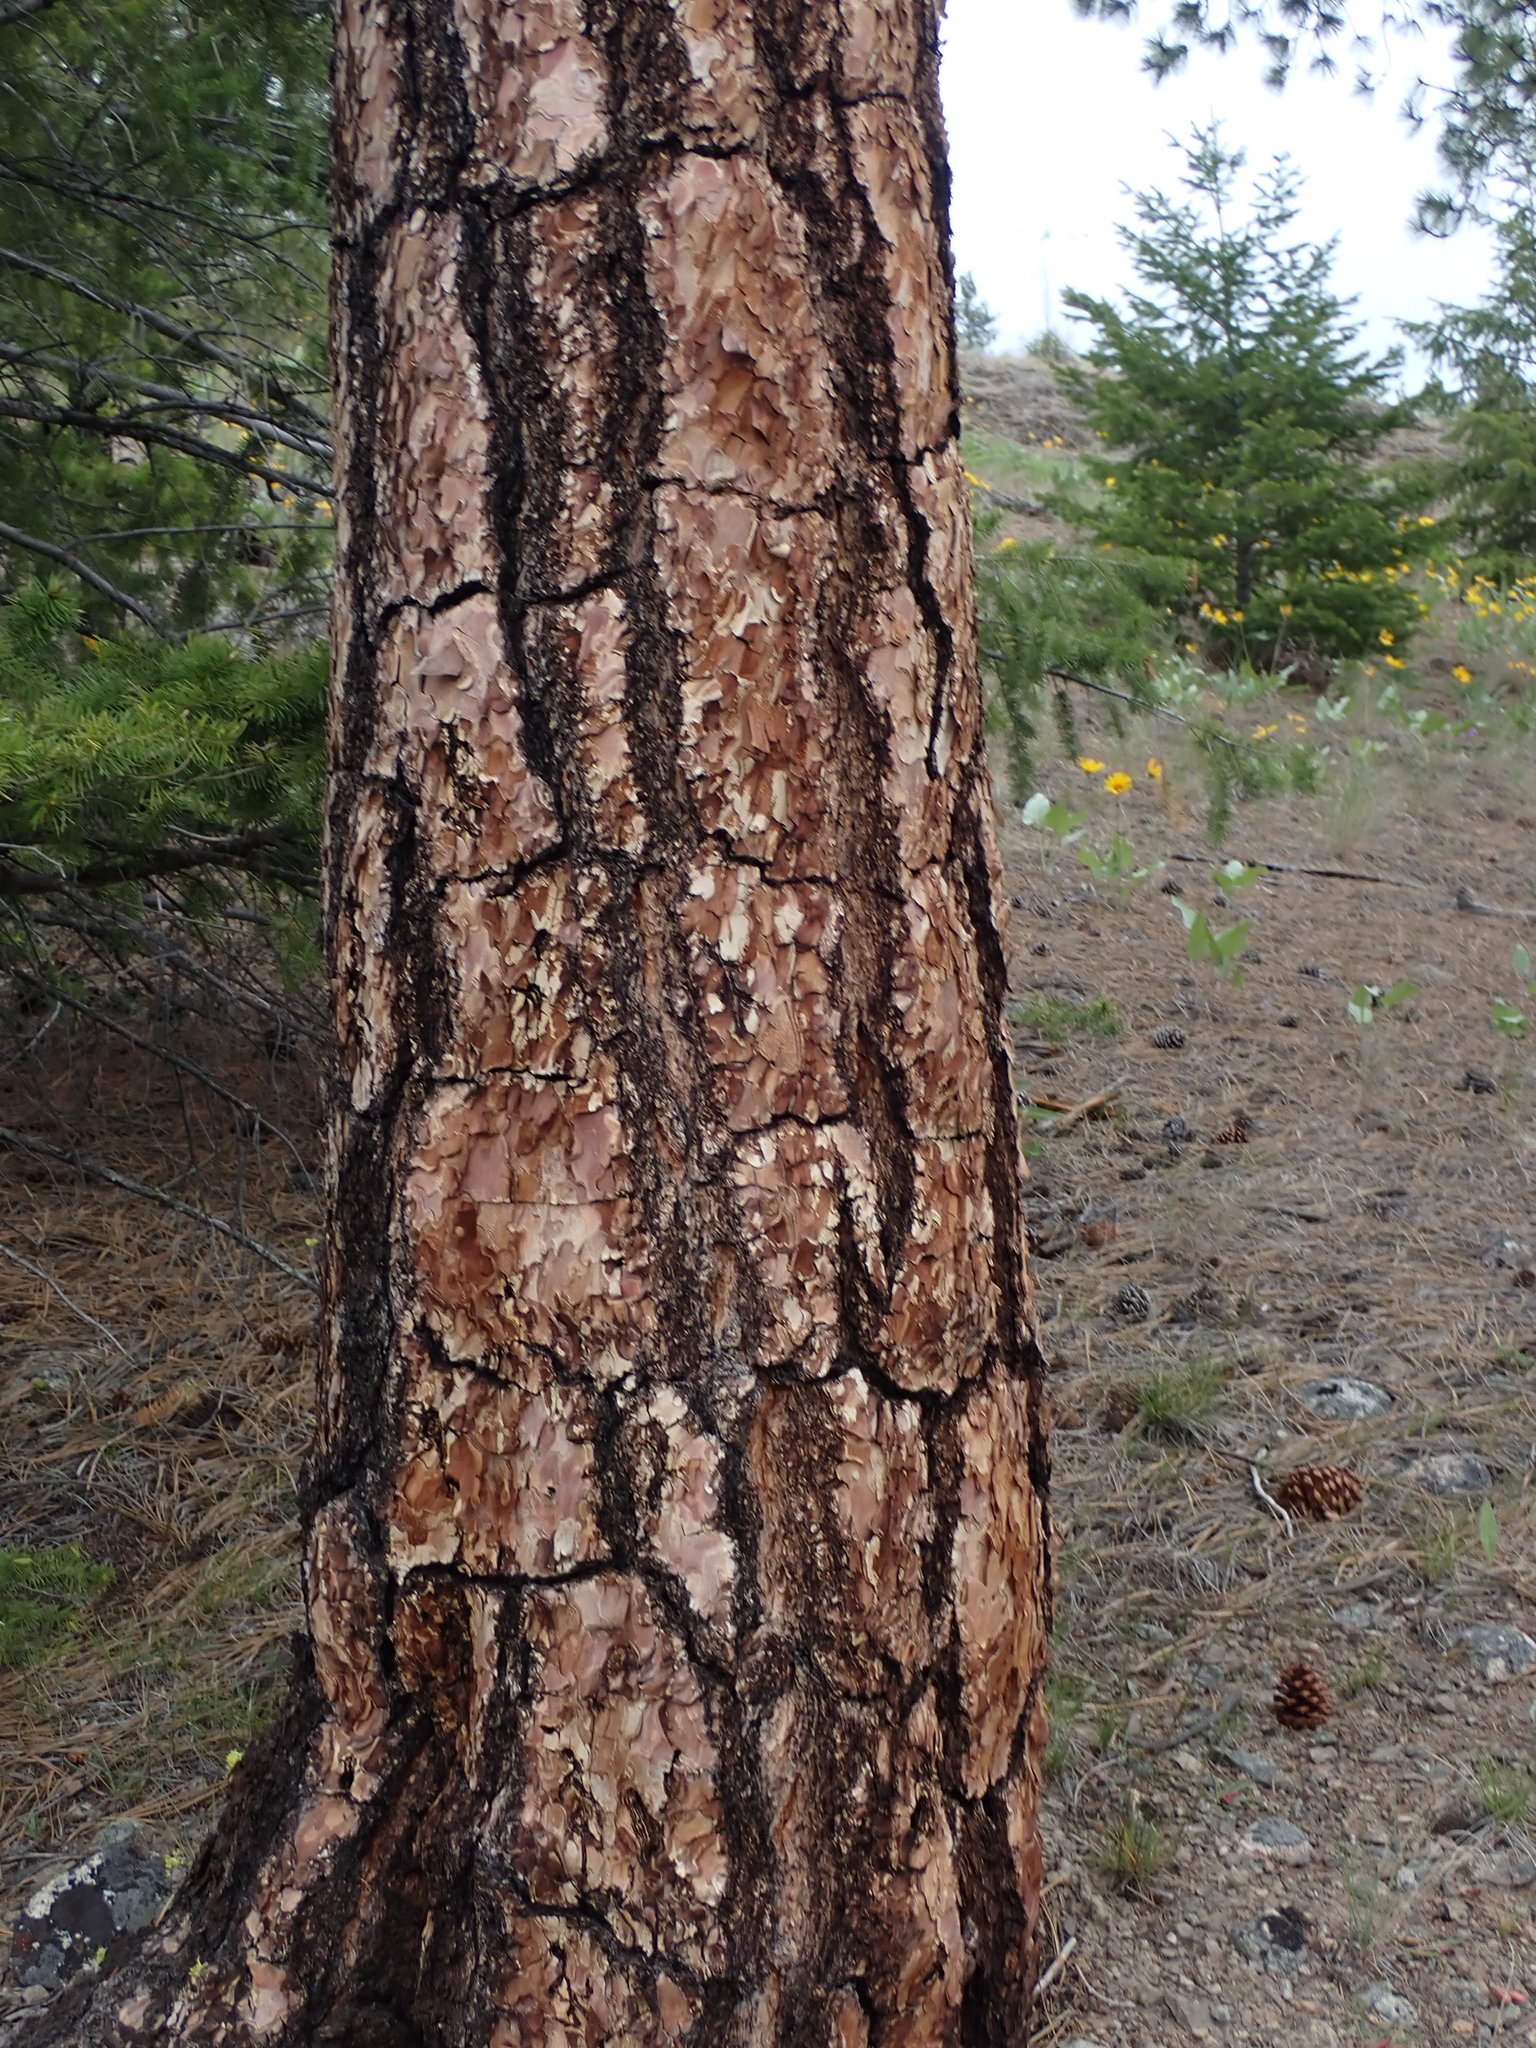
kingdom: Plantae
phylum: Tracheophyta
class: Pinopsida
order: Pinales
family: Pinaceae
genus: Pinus
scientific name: Pinus ponderosa
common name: Western yellow-pine
